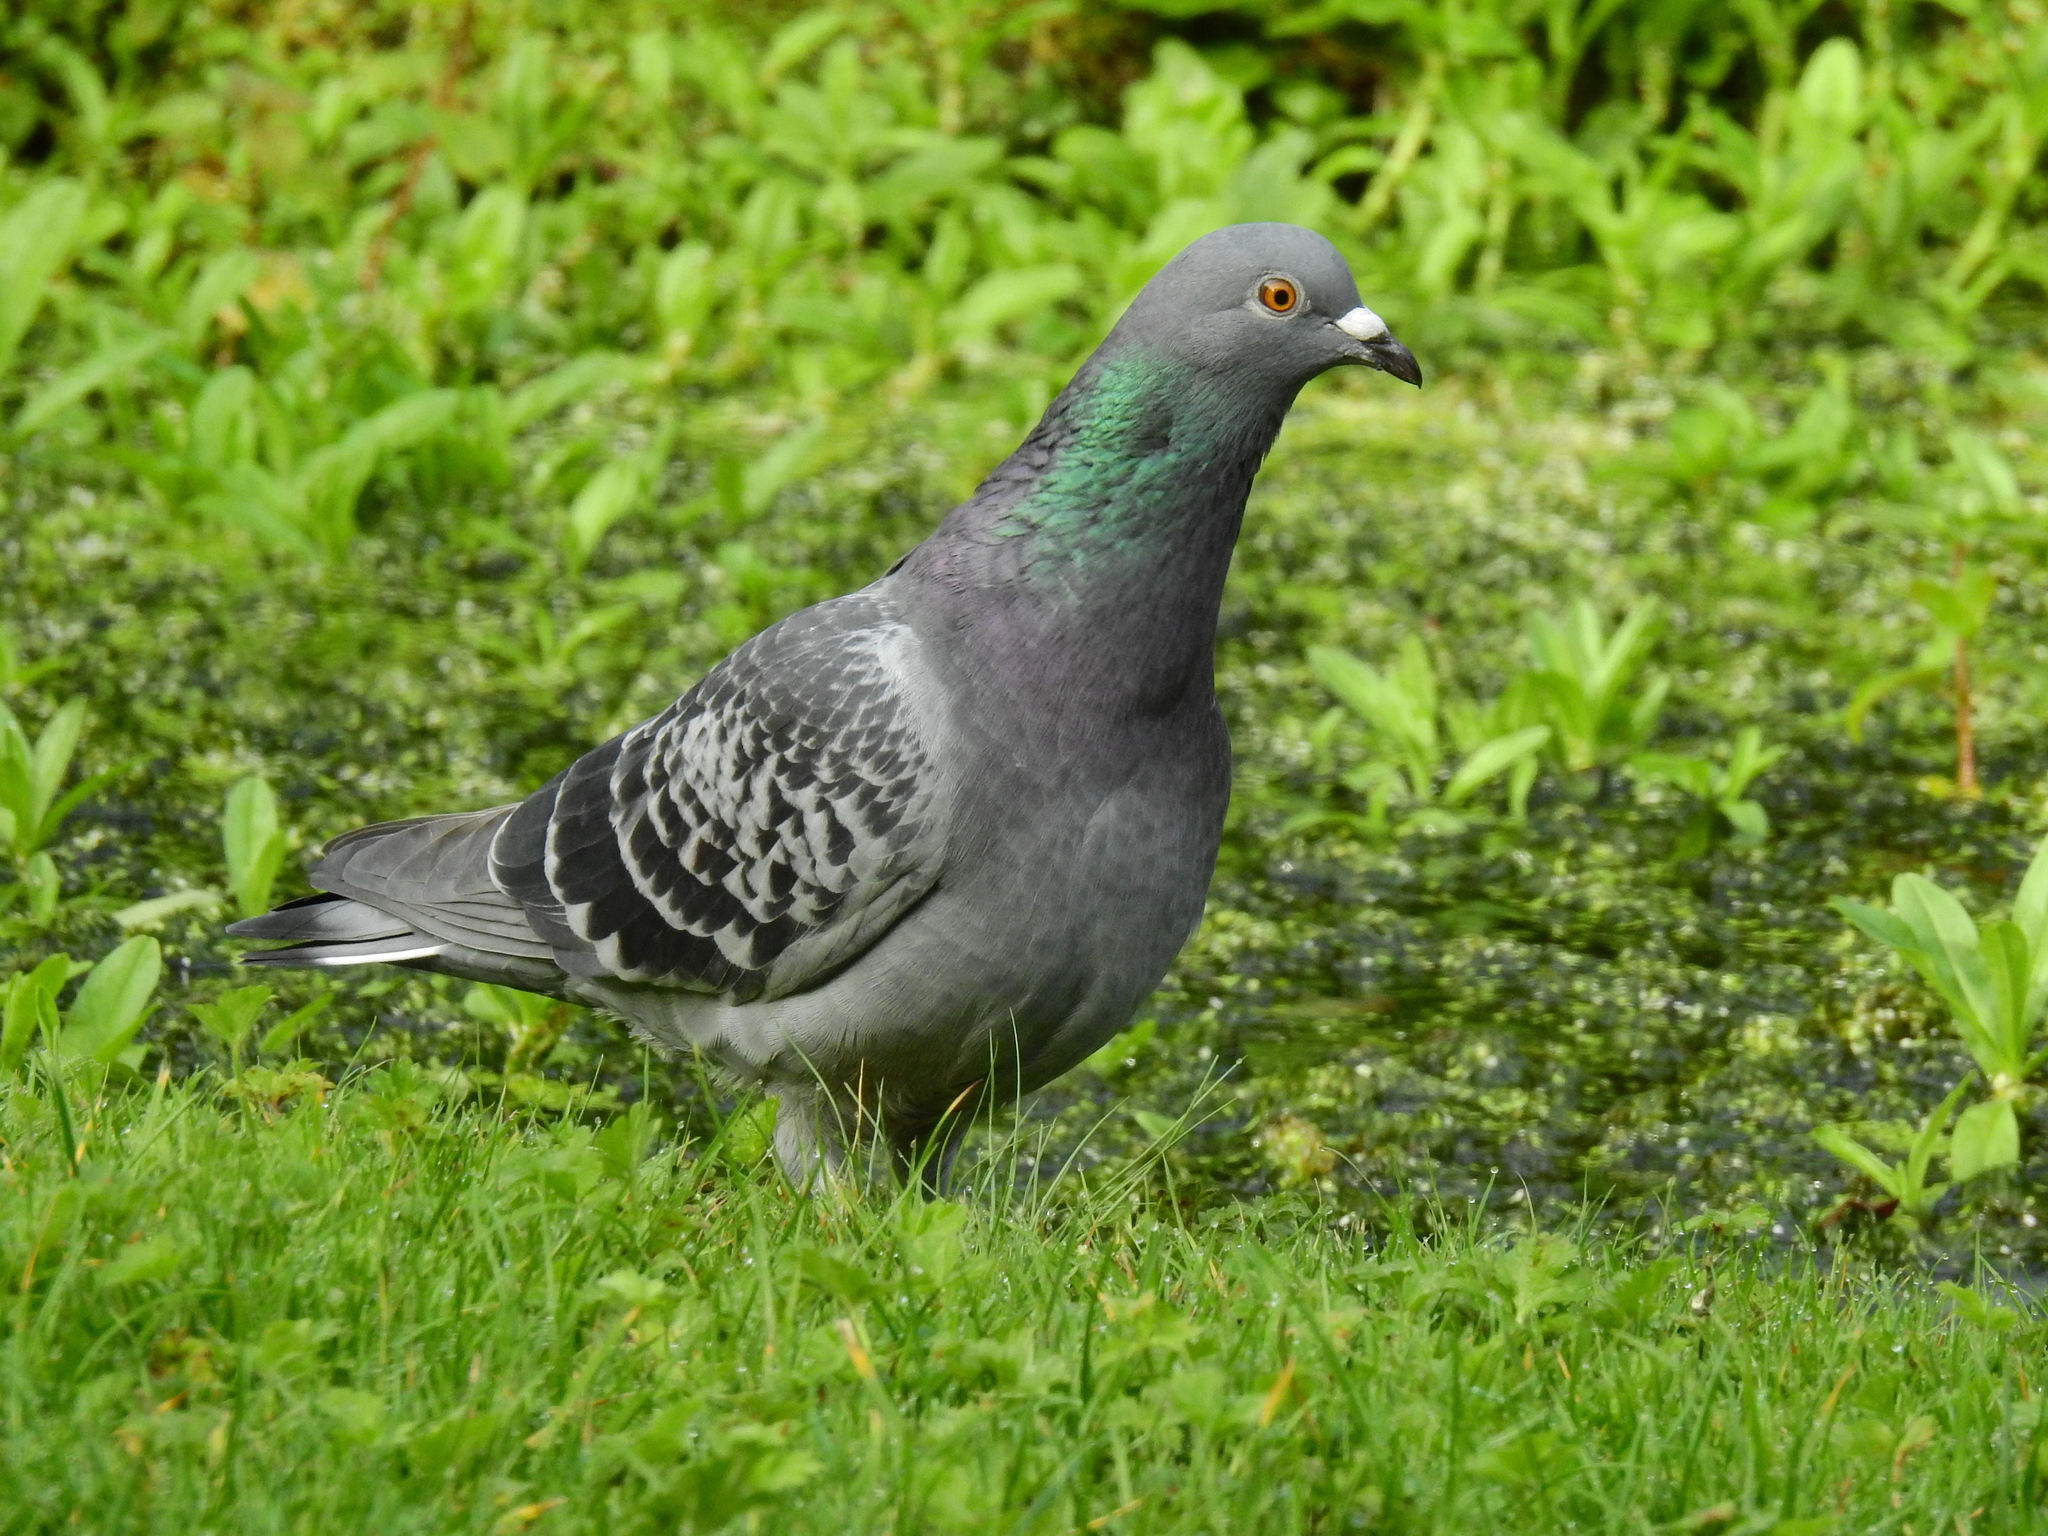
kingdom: Animalia
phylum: Chordata
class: Aves
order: Columbiformes
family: Columbidae
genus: Columba
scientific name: Columba livia
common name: Rock pigeon
